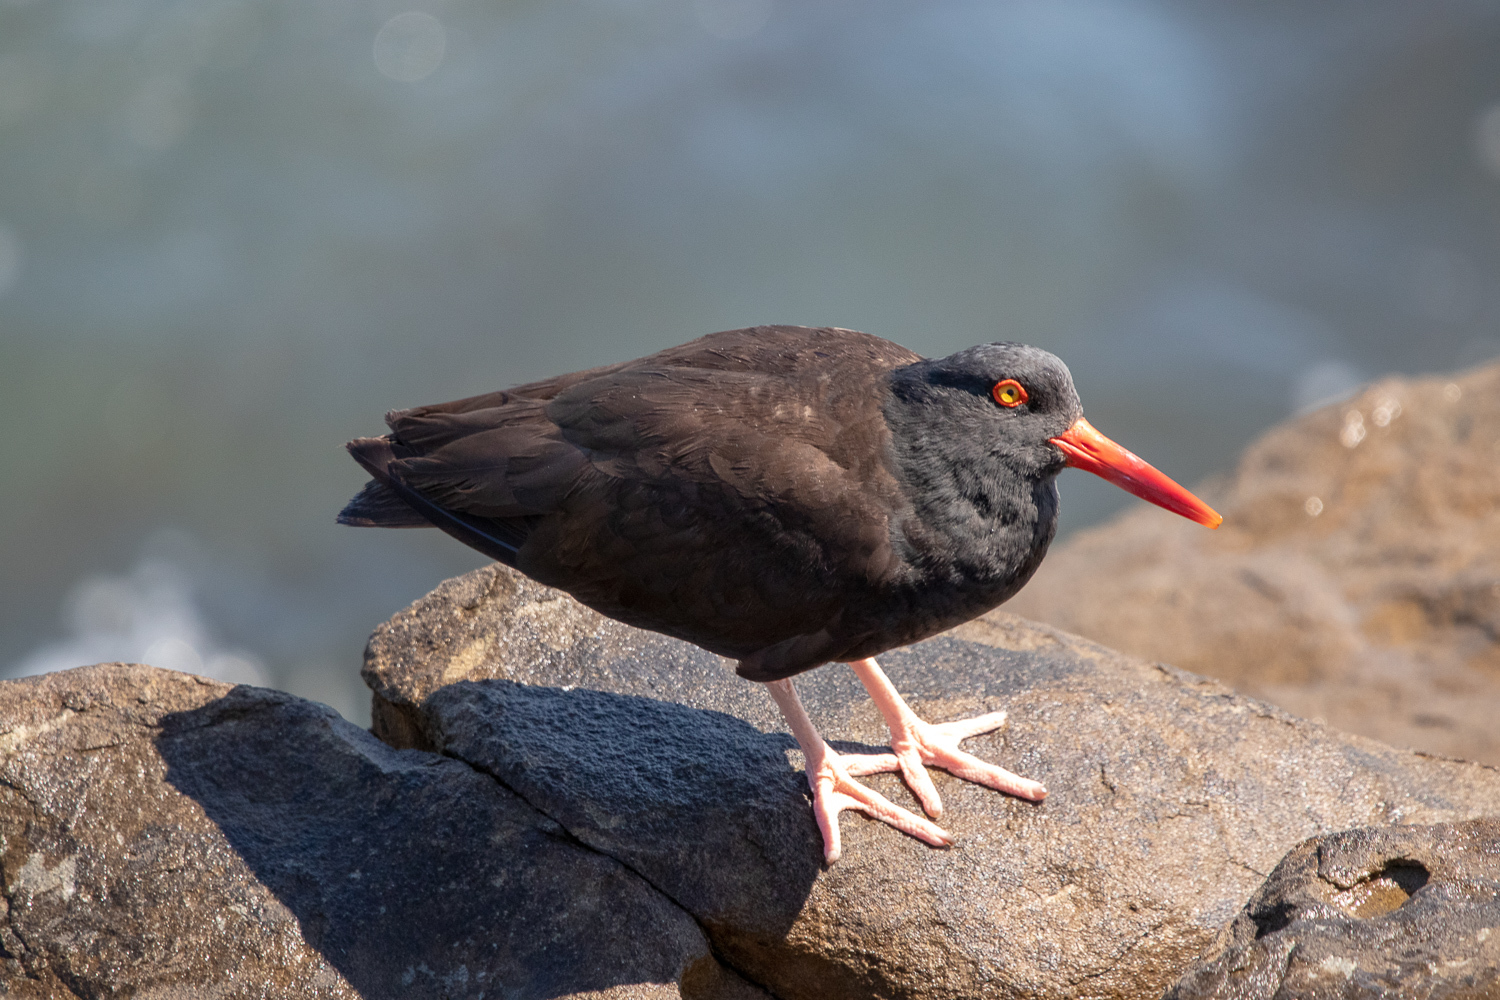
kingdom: Animalia
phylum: Chordata
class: Aves
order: Charadriiformes
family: Haematopodidae
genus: Haematopus
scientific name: Haematopus bachmani
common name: Black oystercatcher
